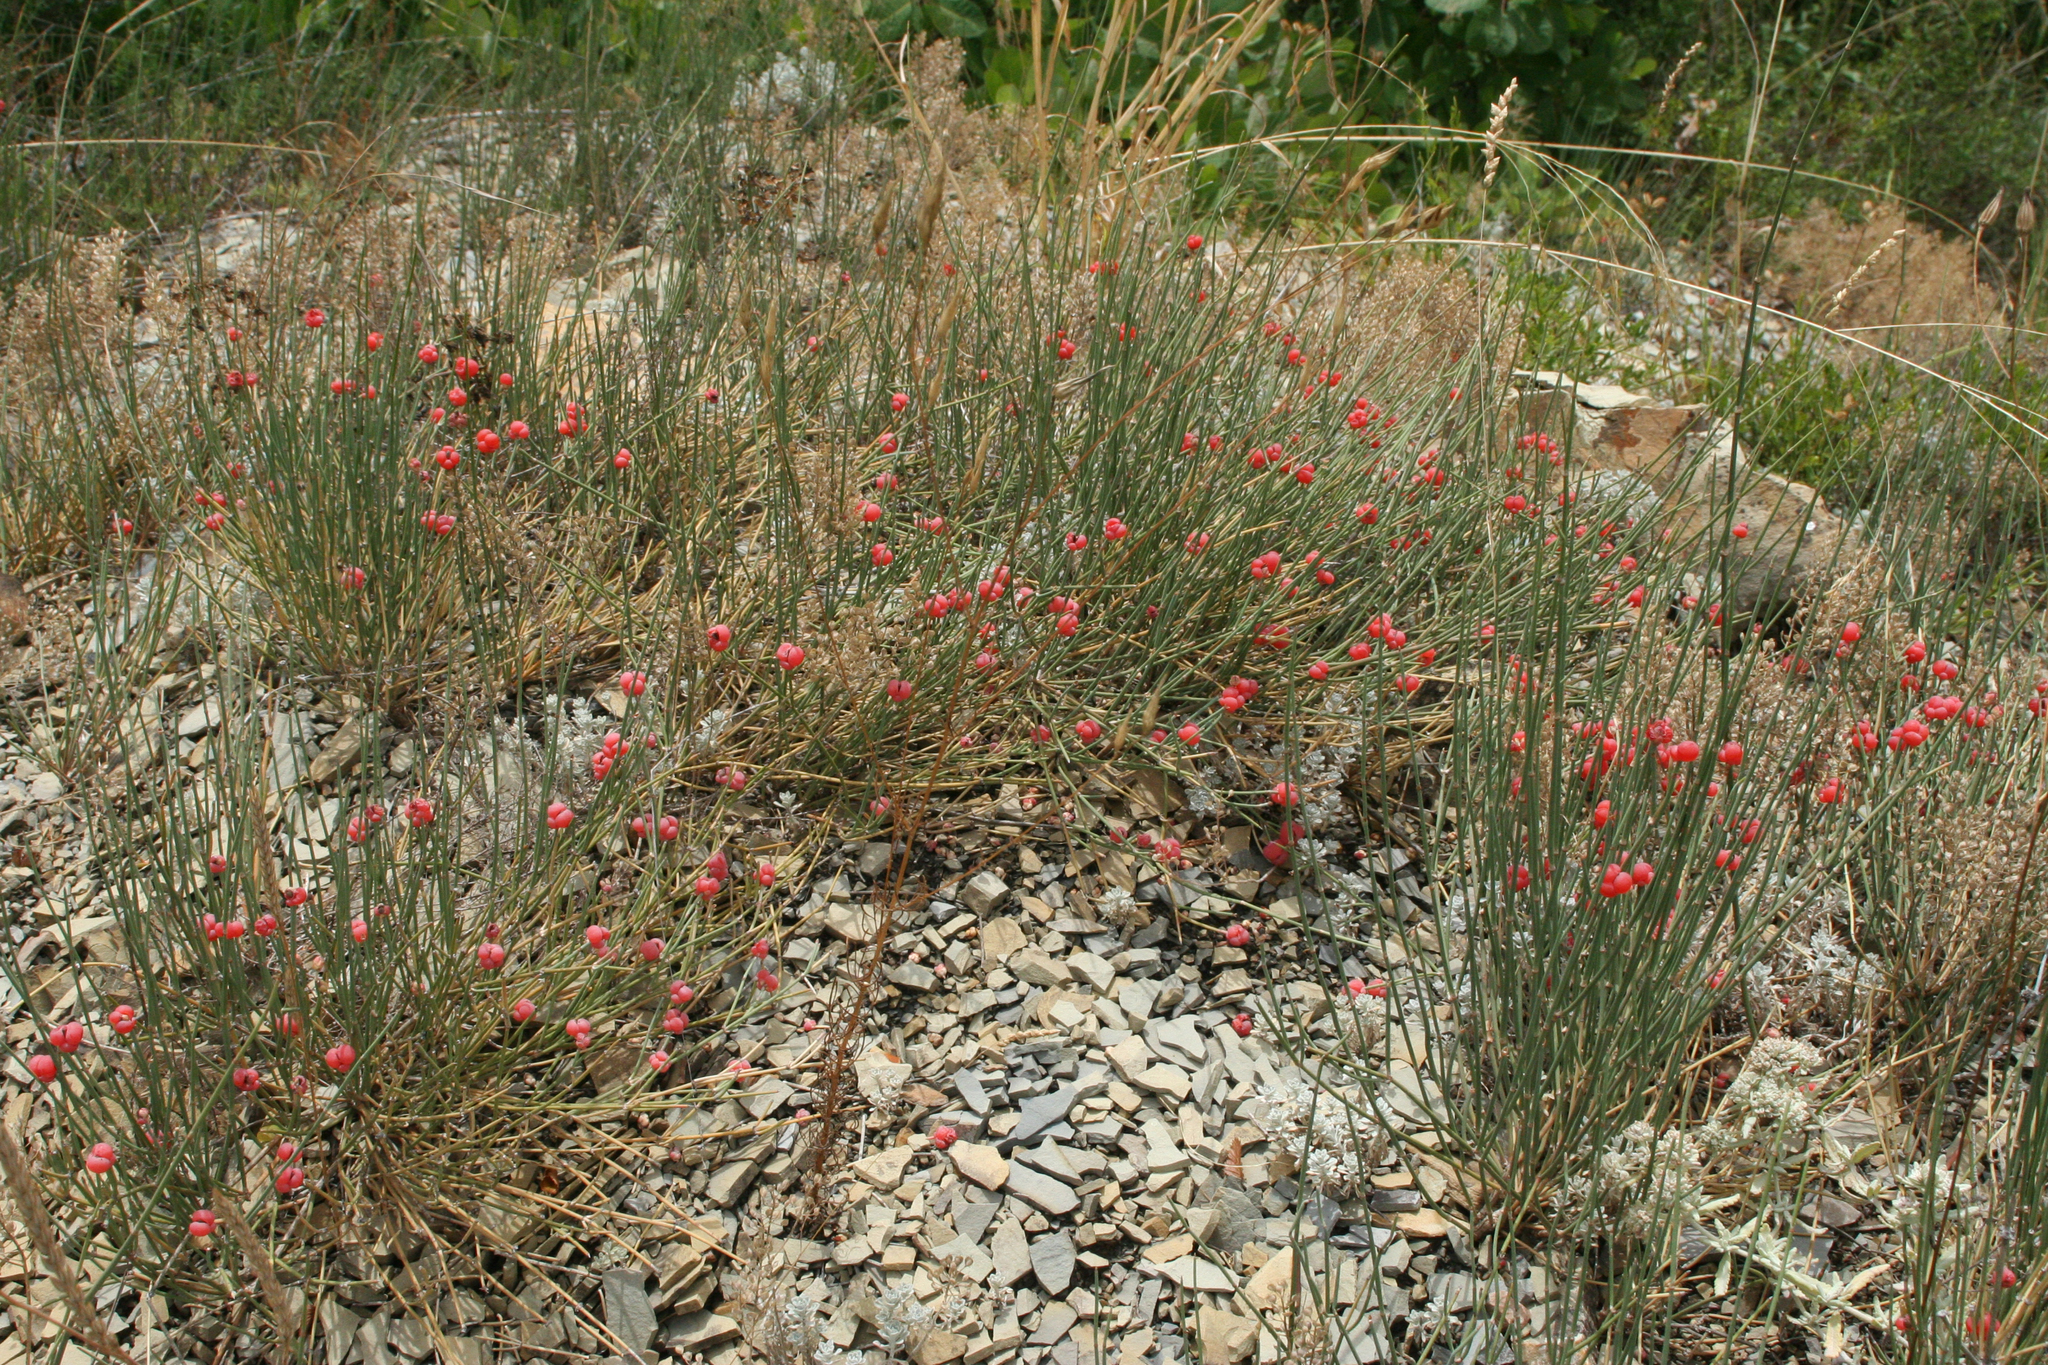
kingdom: Plantae
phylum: Tracheophyta
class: Gnetopsida
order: Ephedrales
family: Ephedraceae
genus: Ephedra
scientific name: Ephedra distachya
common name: Sea grape
